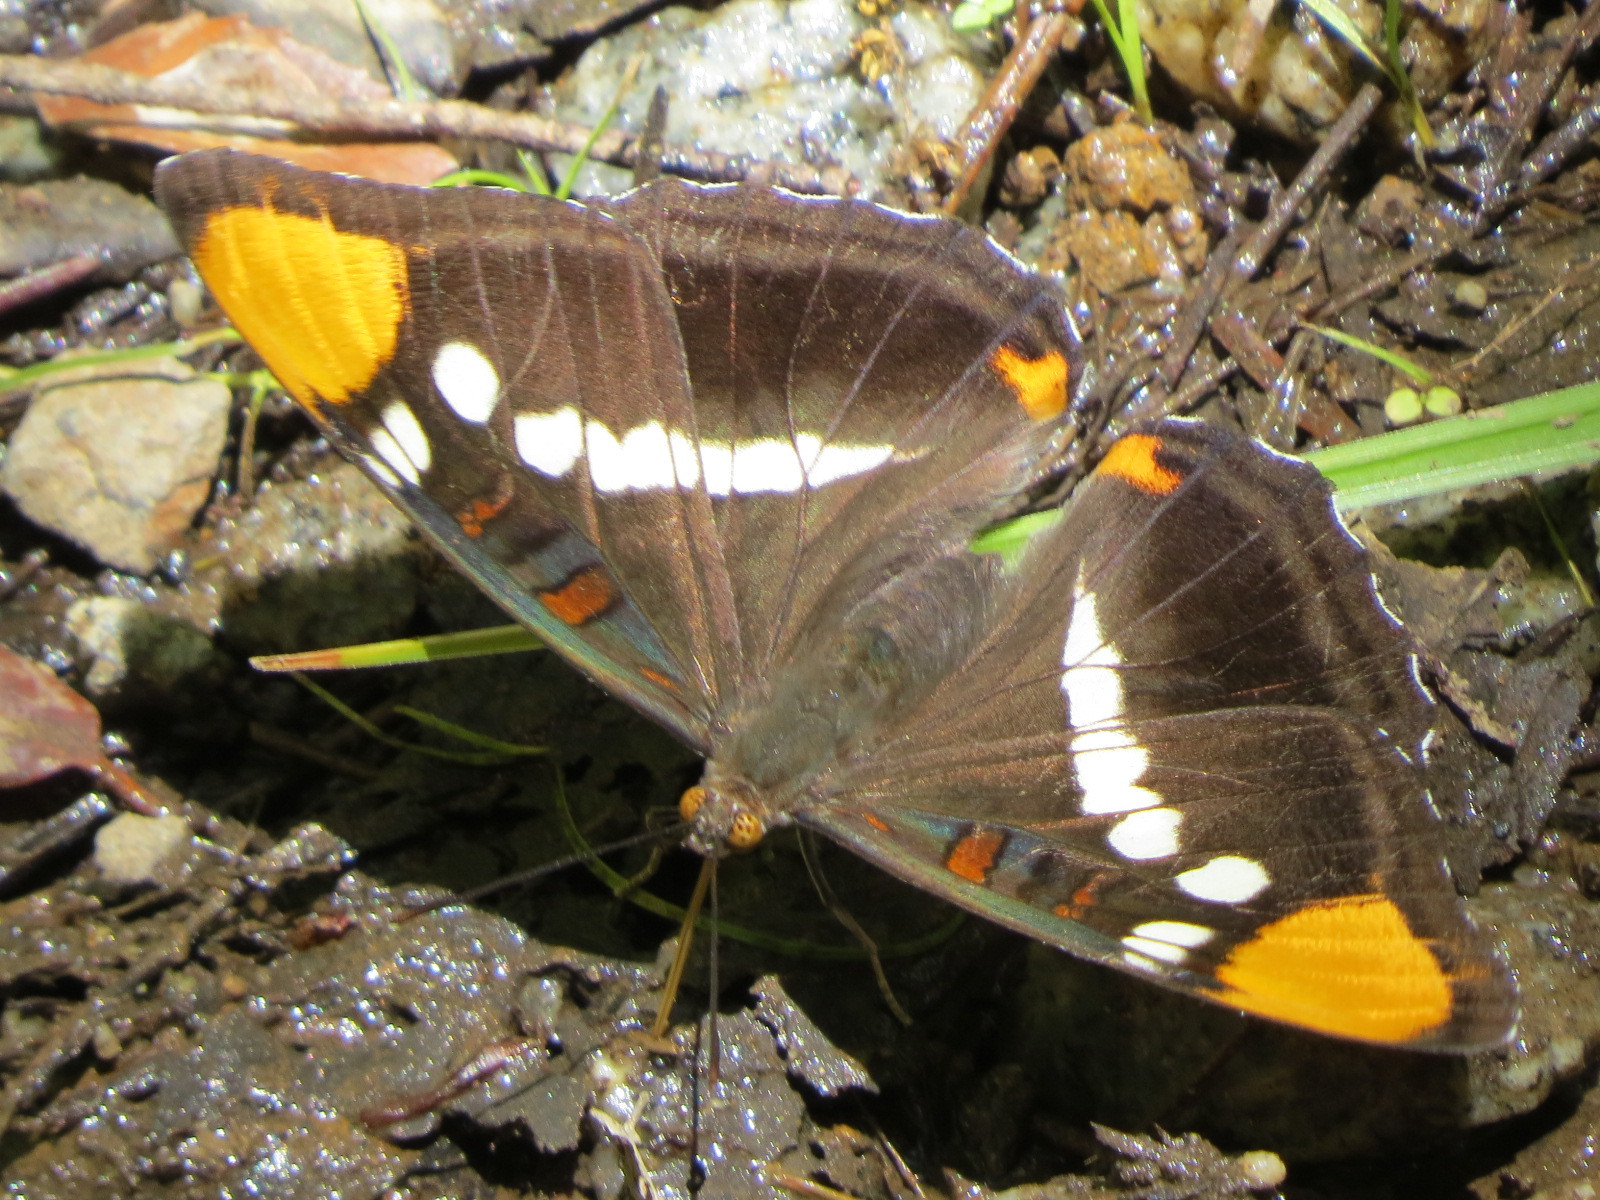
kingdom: Animalia
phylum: Arthropoda
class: Insecta
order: Lepidoptera
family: Nymphalidae
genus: Limenitis
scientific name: Limenitis bredowii
